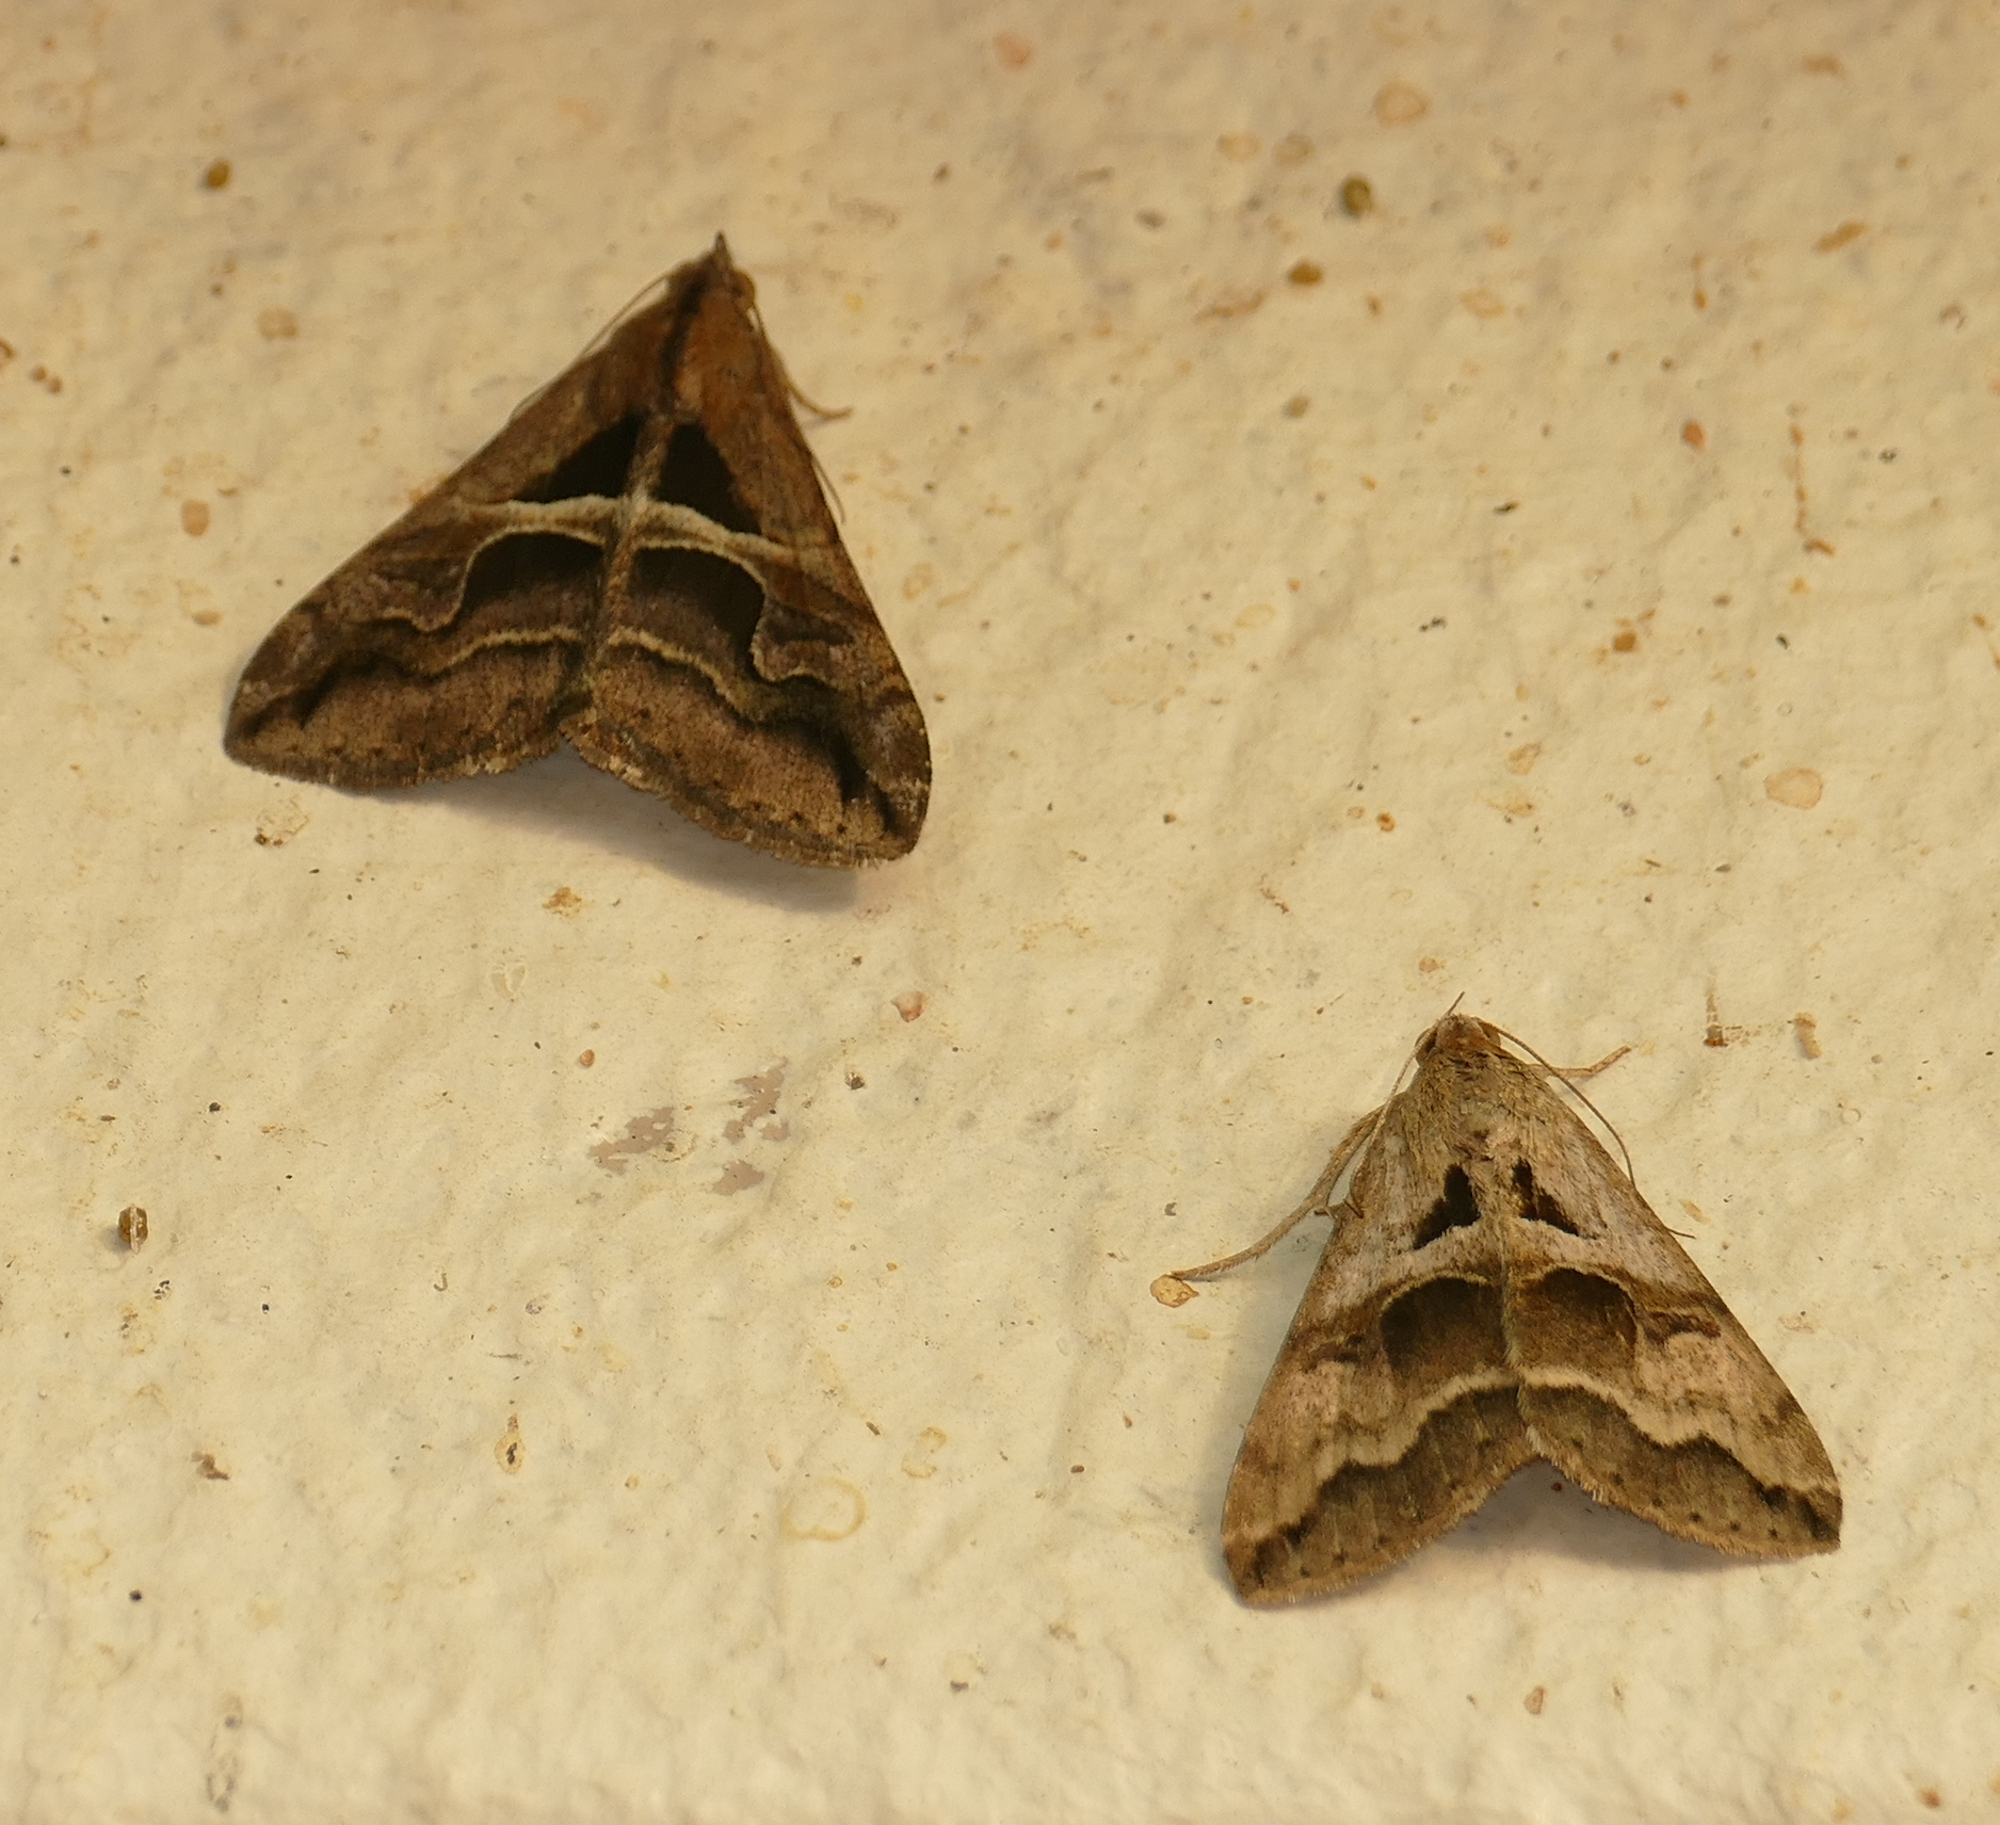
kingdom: Animalia
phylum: Arthropoda
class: Insecta
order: Lepidoptera
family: Erebidae
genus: Melipotis
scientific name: Melipotis cellaris
